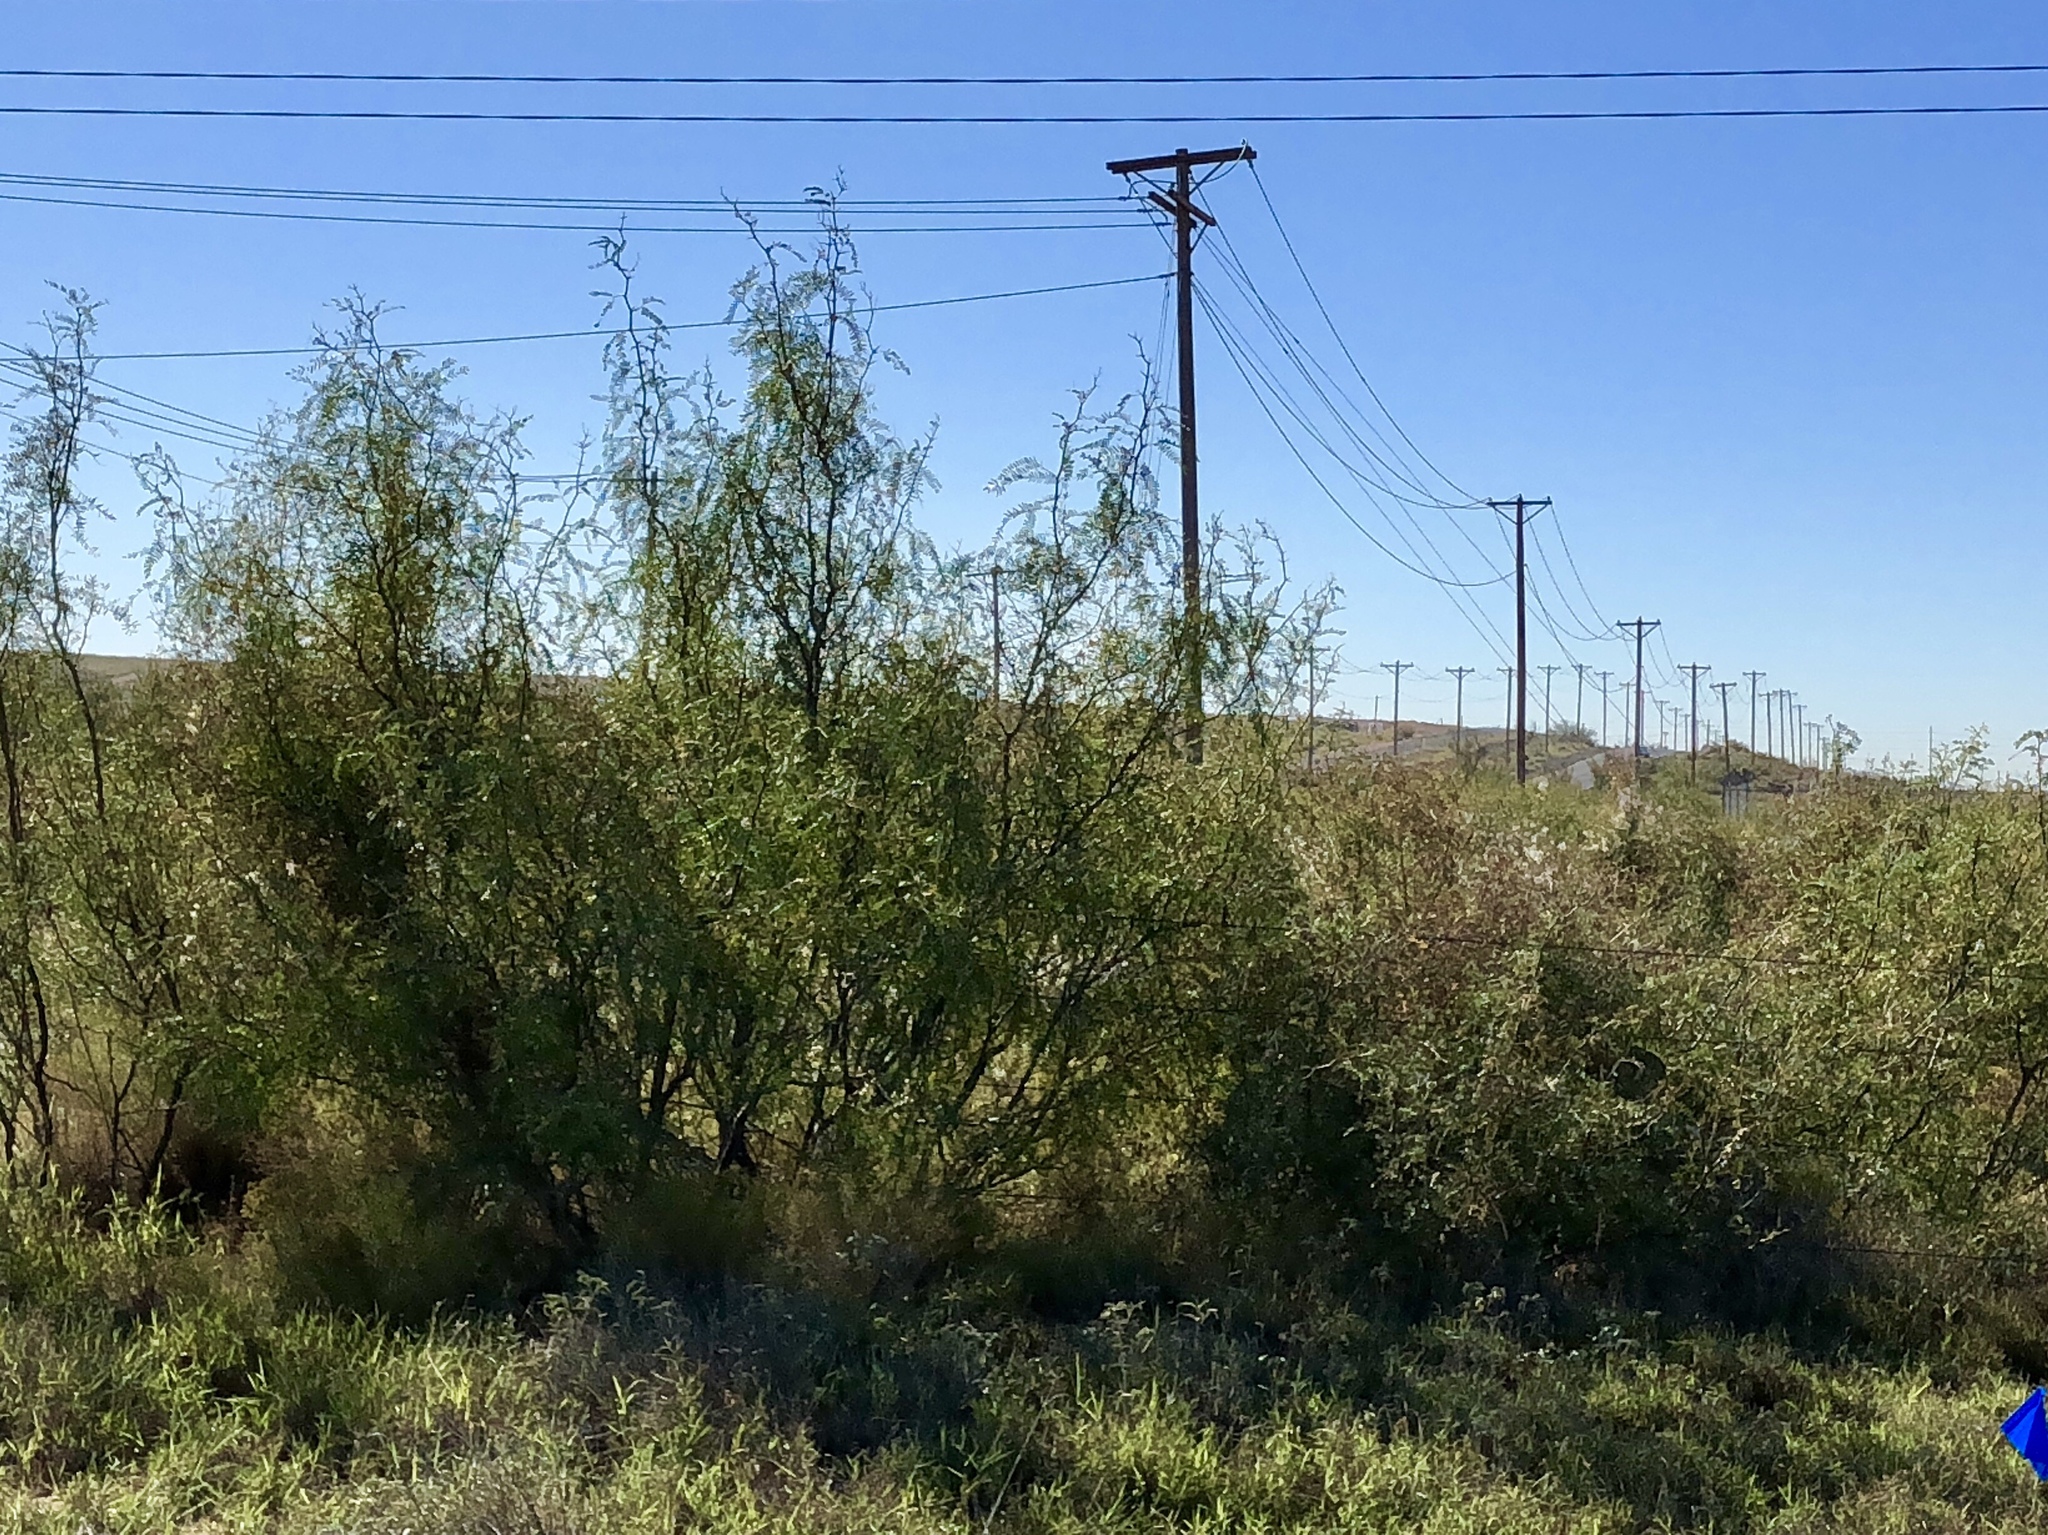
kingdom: Plantae
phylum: Tracheophyta
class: Magnoliopsida
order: Fabales
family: Fabaceae
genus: Prosopis
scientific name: Prosopis glandulosa
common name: Honey mesquite
